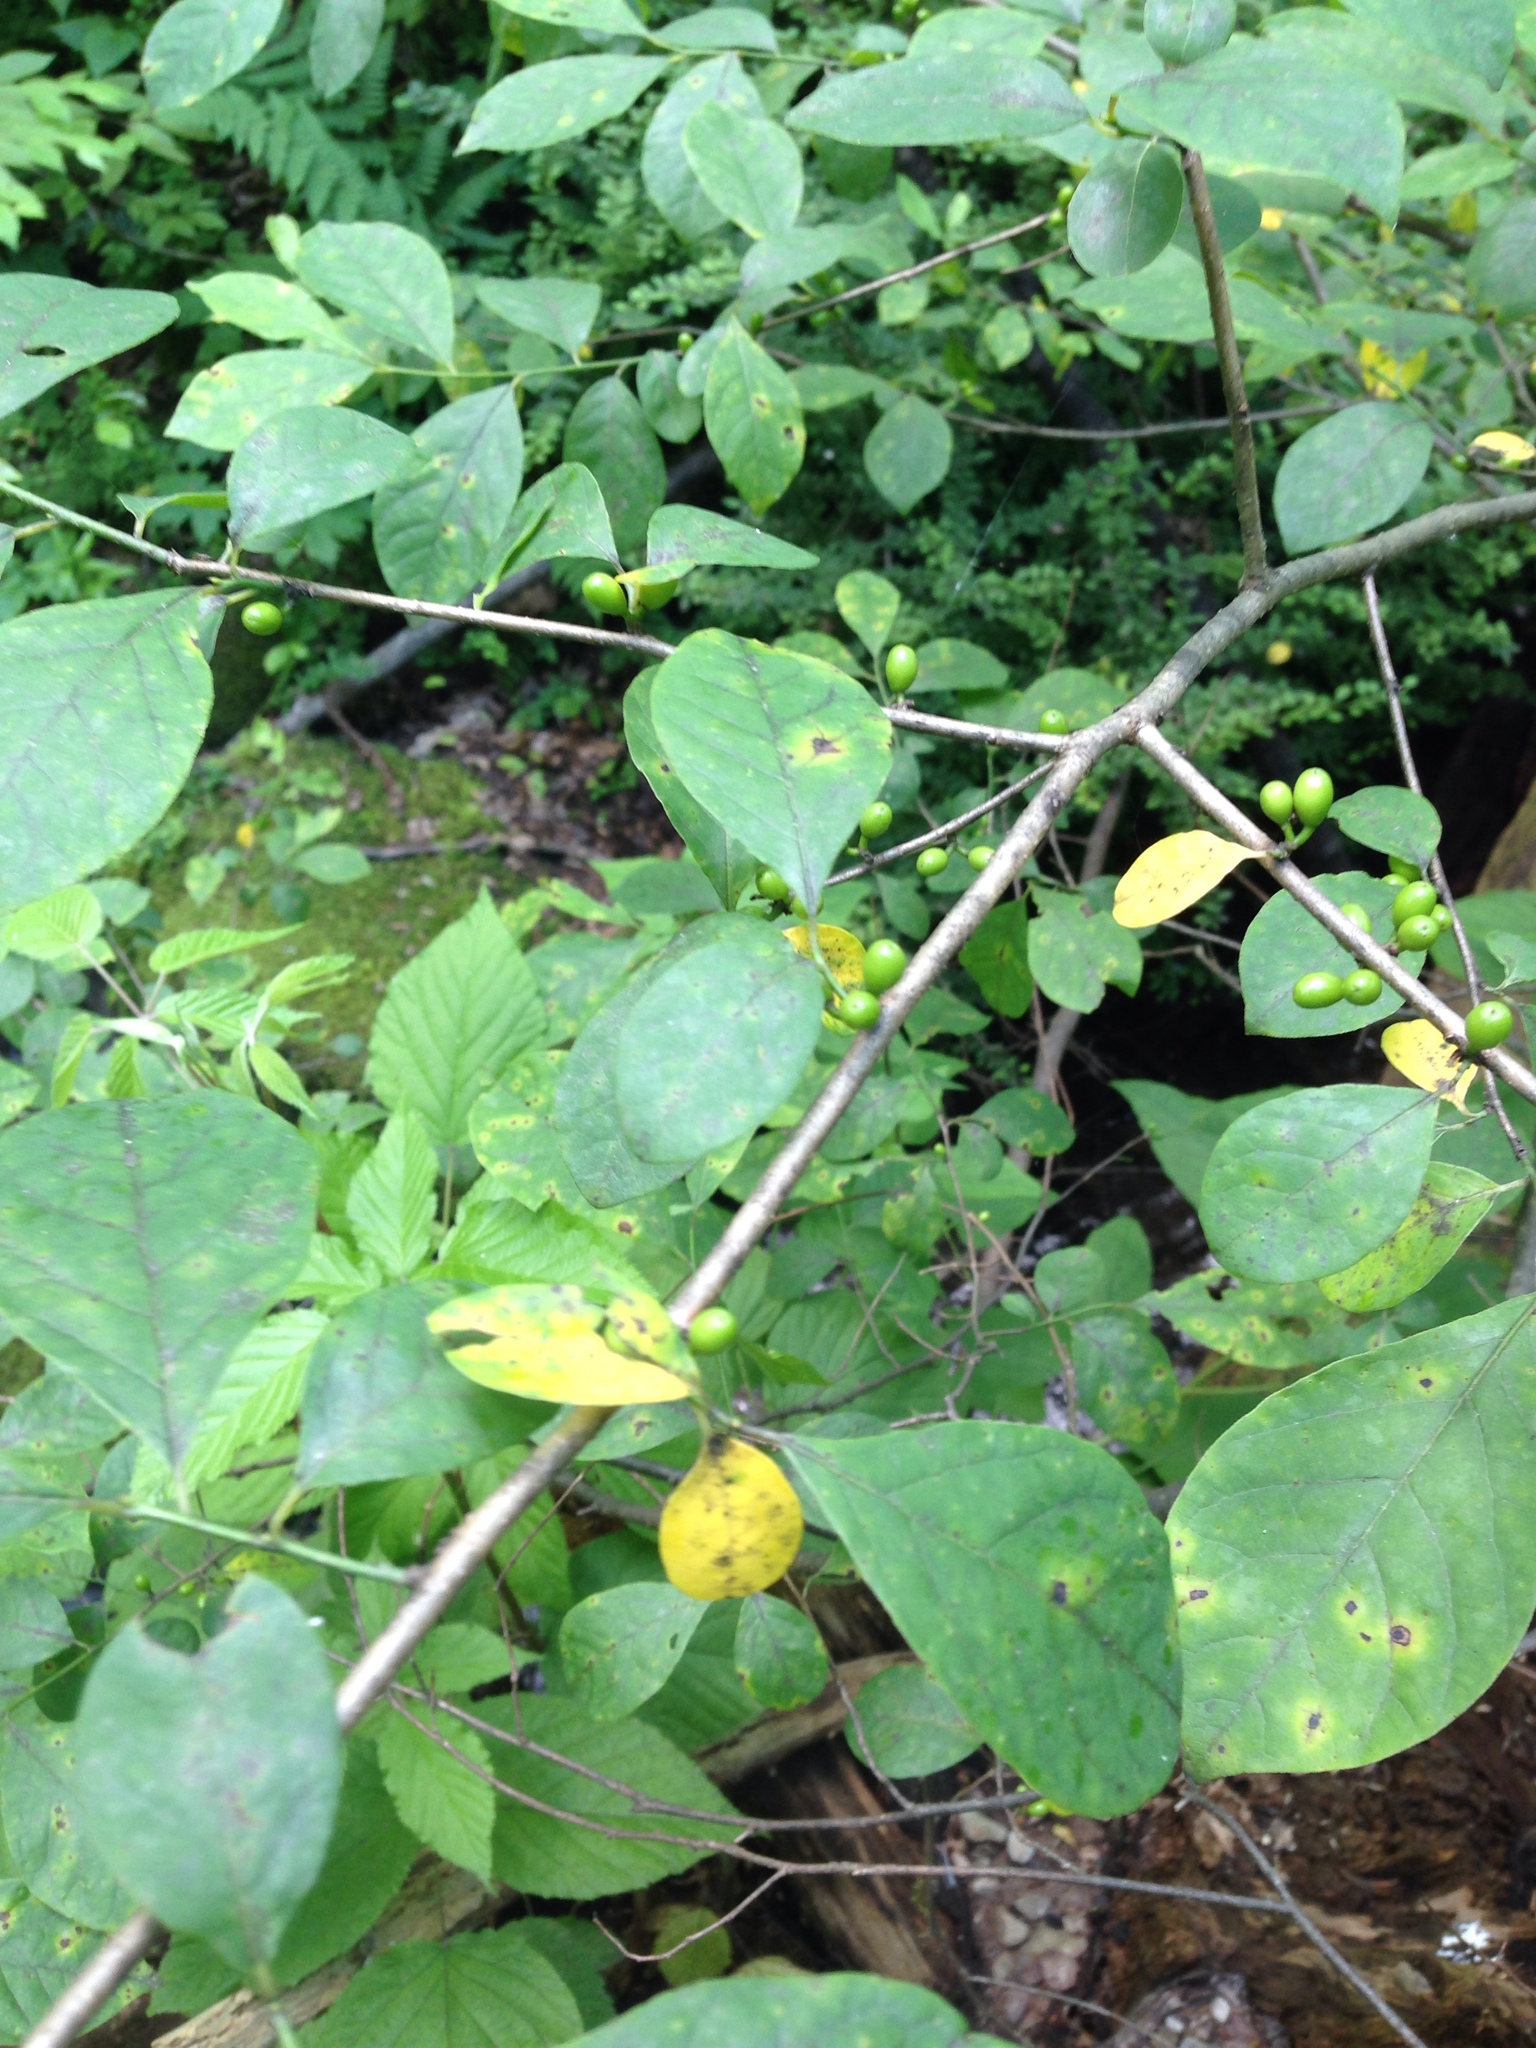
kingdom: Plantae
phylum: Tracheophyta
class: Magnoliopsida
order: Laurales
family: Lauraceae
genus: Lindera
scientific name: Lindera benzoin
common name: Spicebush
